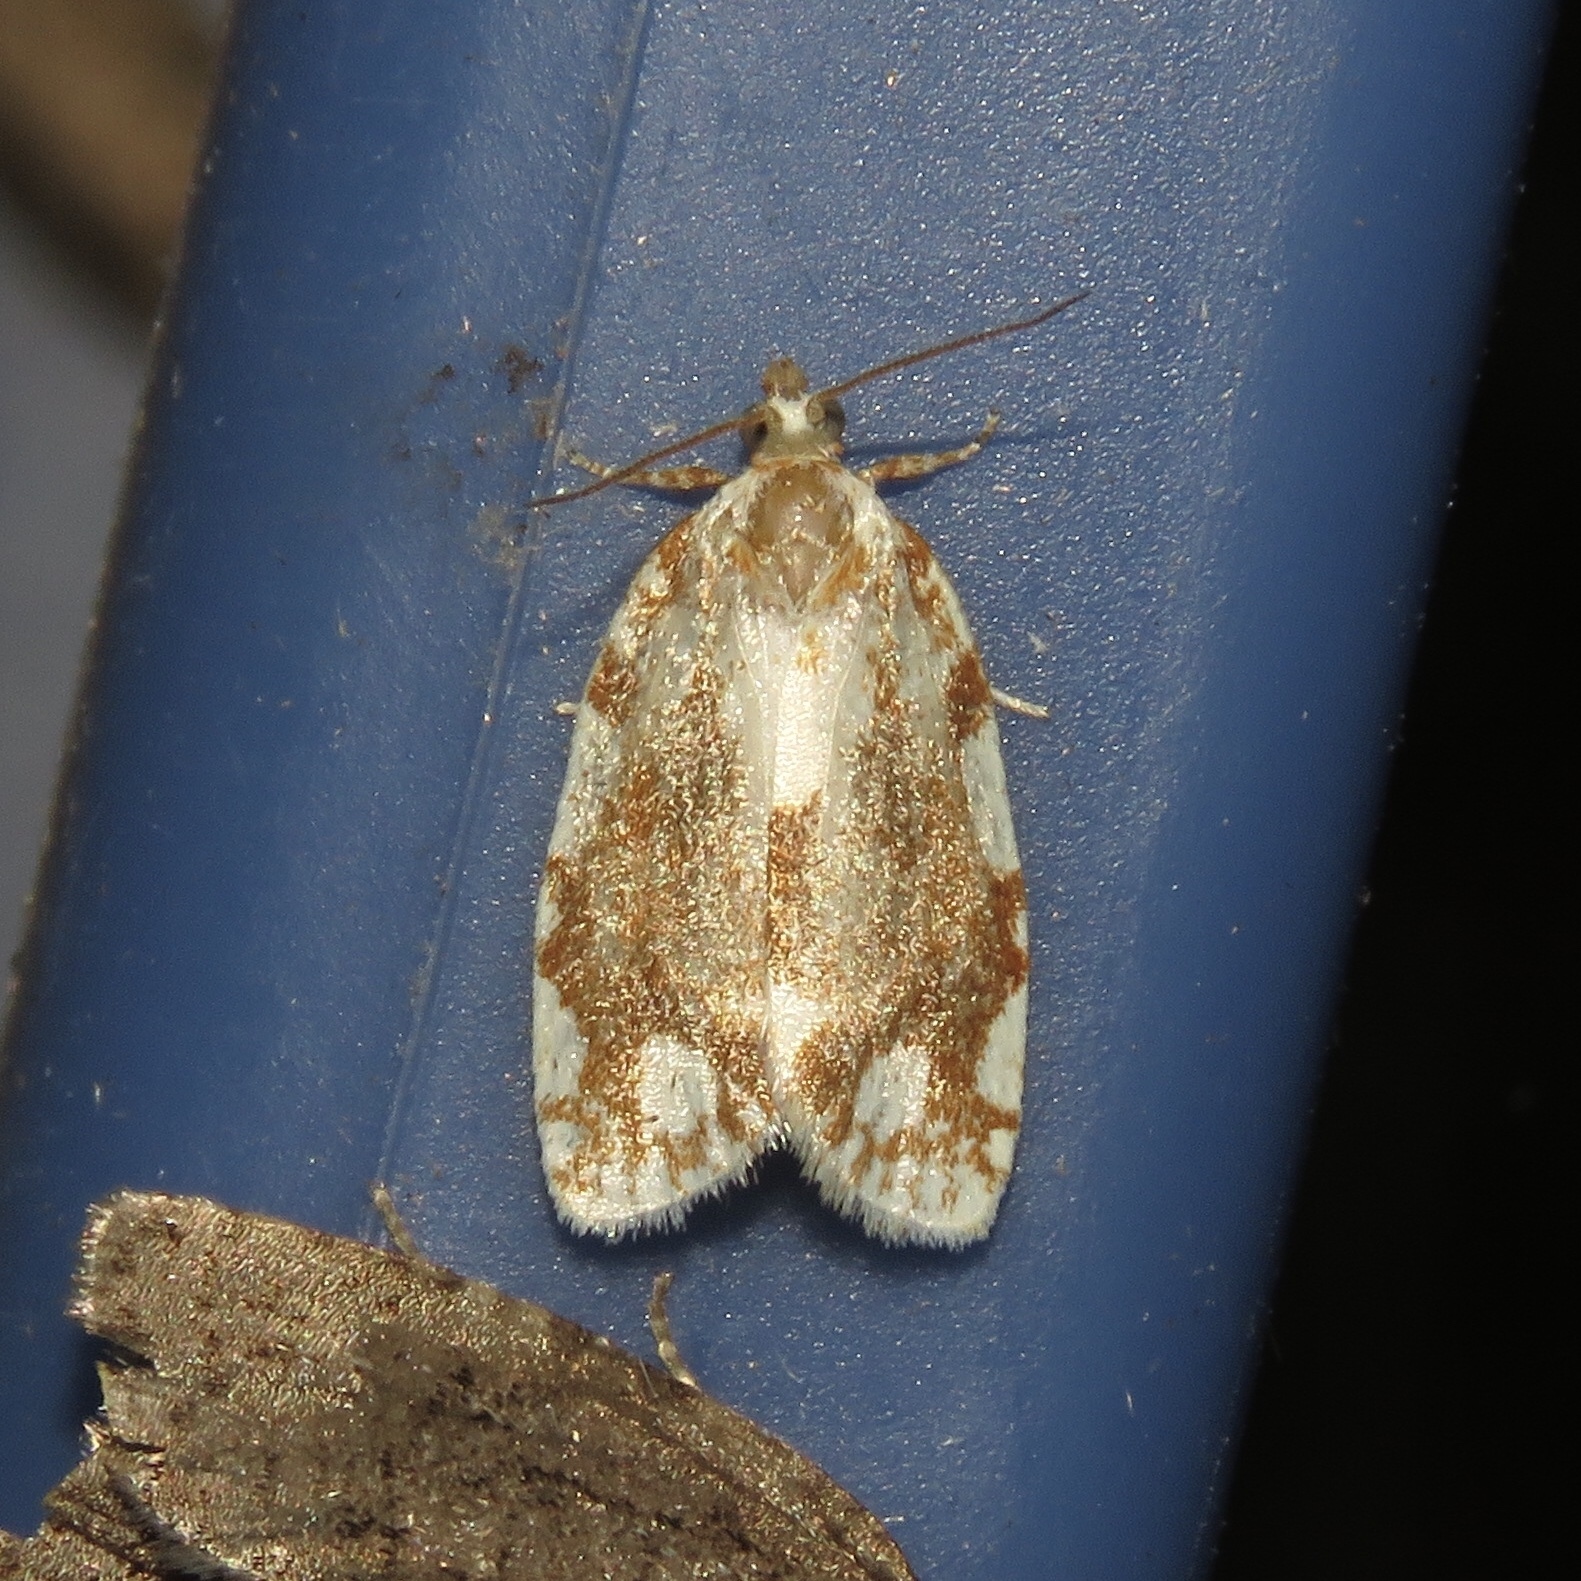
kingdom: Animalia
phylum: Arthropoda
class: Insecta
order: Lepidoptera
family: Tortricidae
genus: Argyrotaenia
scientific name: Argyrotaenia alisellana
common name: White-spotted leafroller moth
